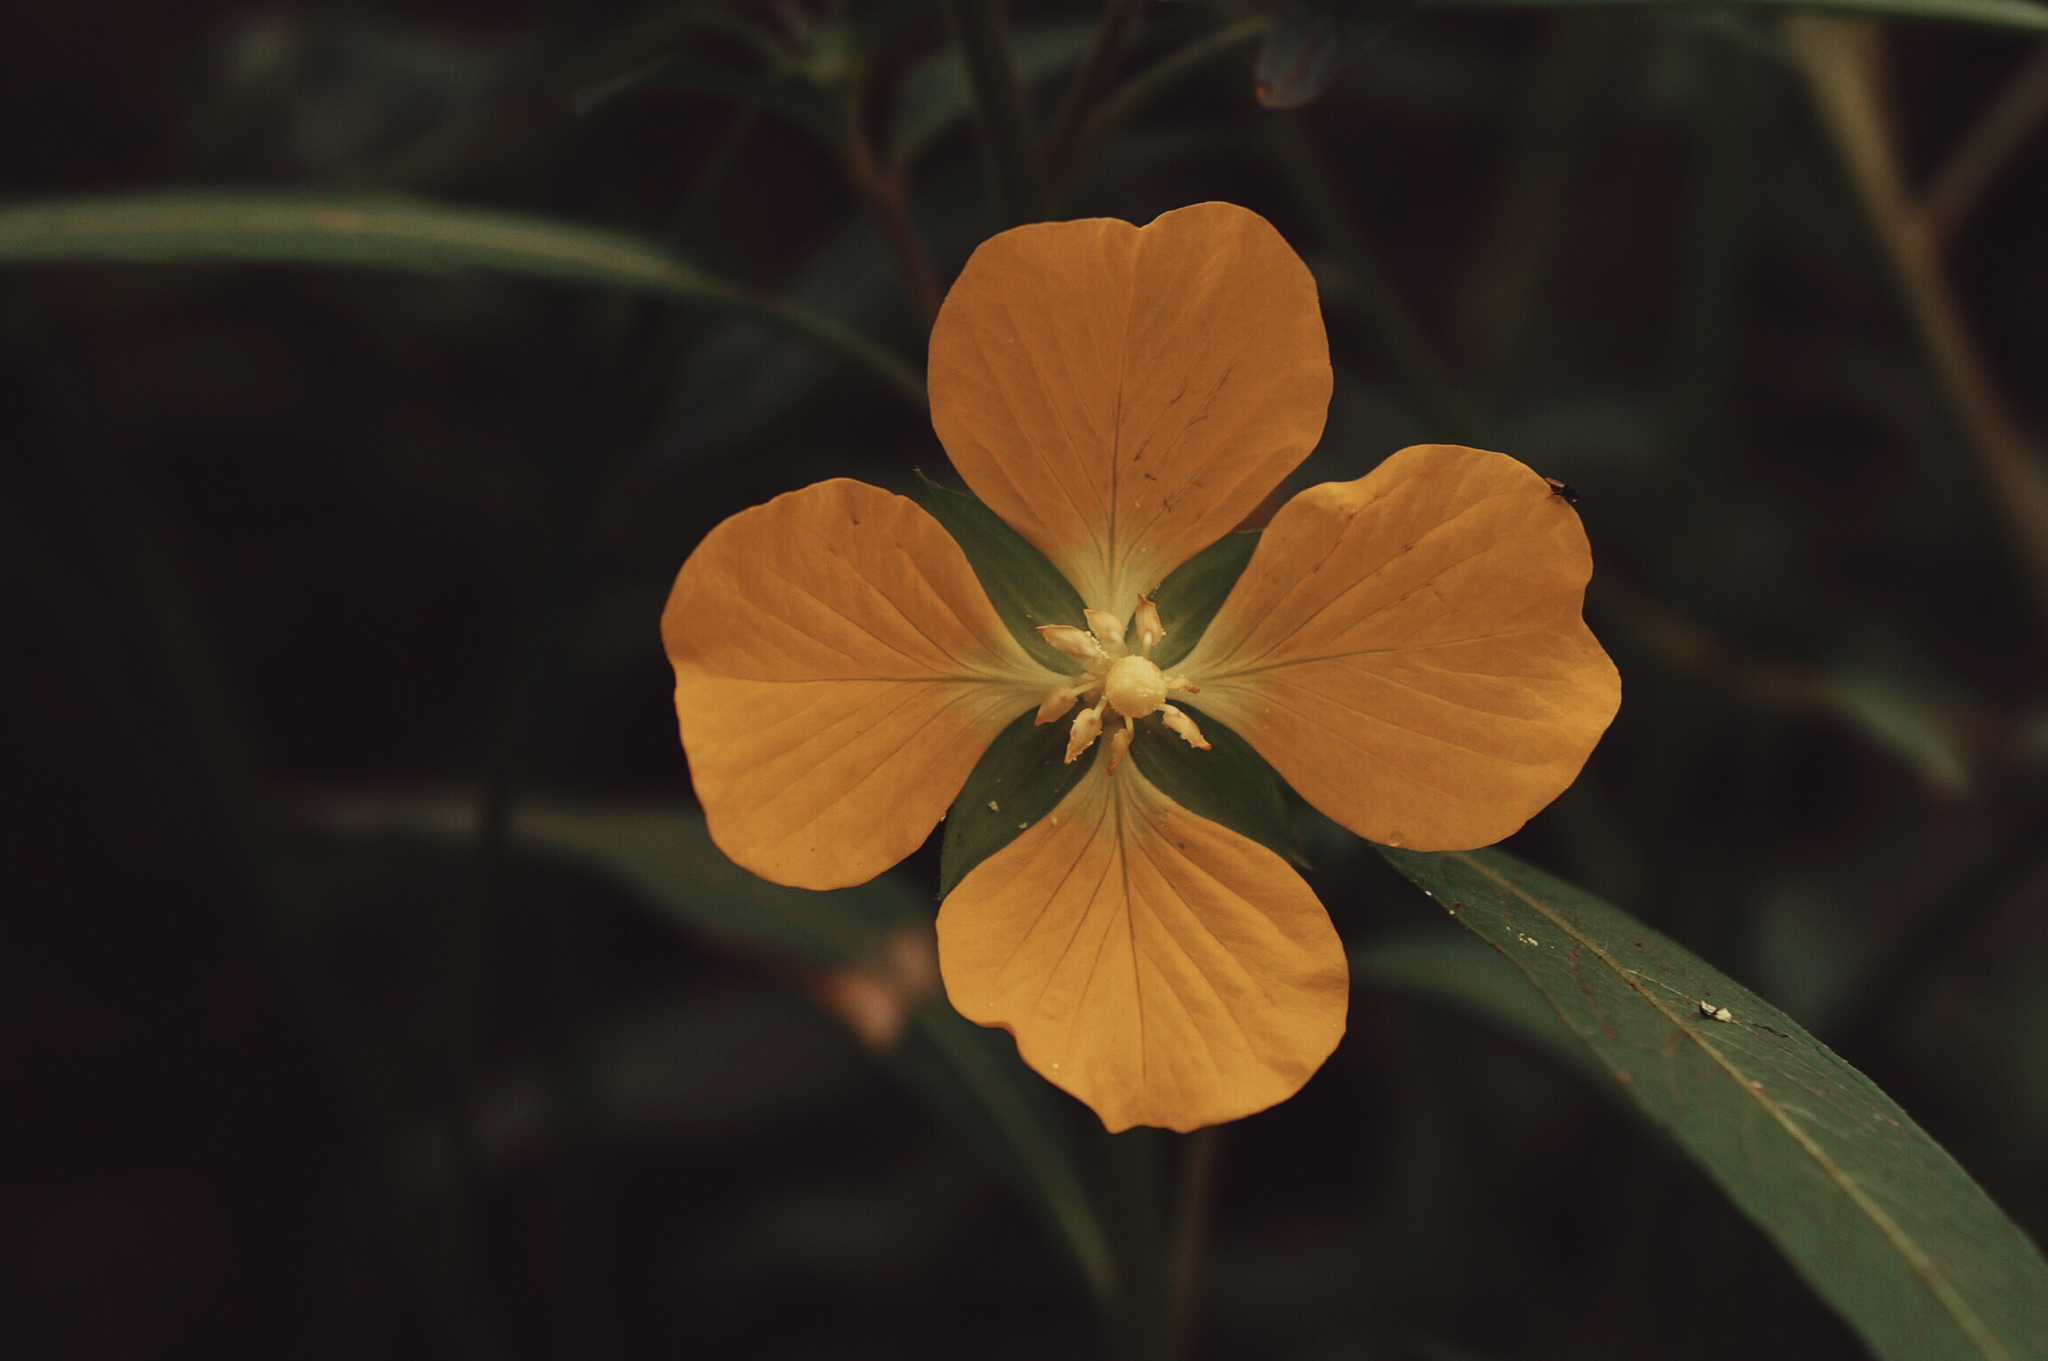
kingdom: Plantae
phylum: Tracheophyta
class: Magnoliopsida
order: Myrtales
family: Onagraceae
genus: Ludwigia
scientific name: Ludwigia octovalvis
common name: Water-primrose
